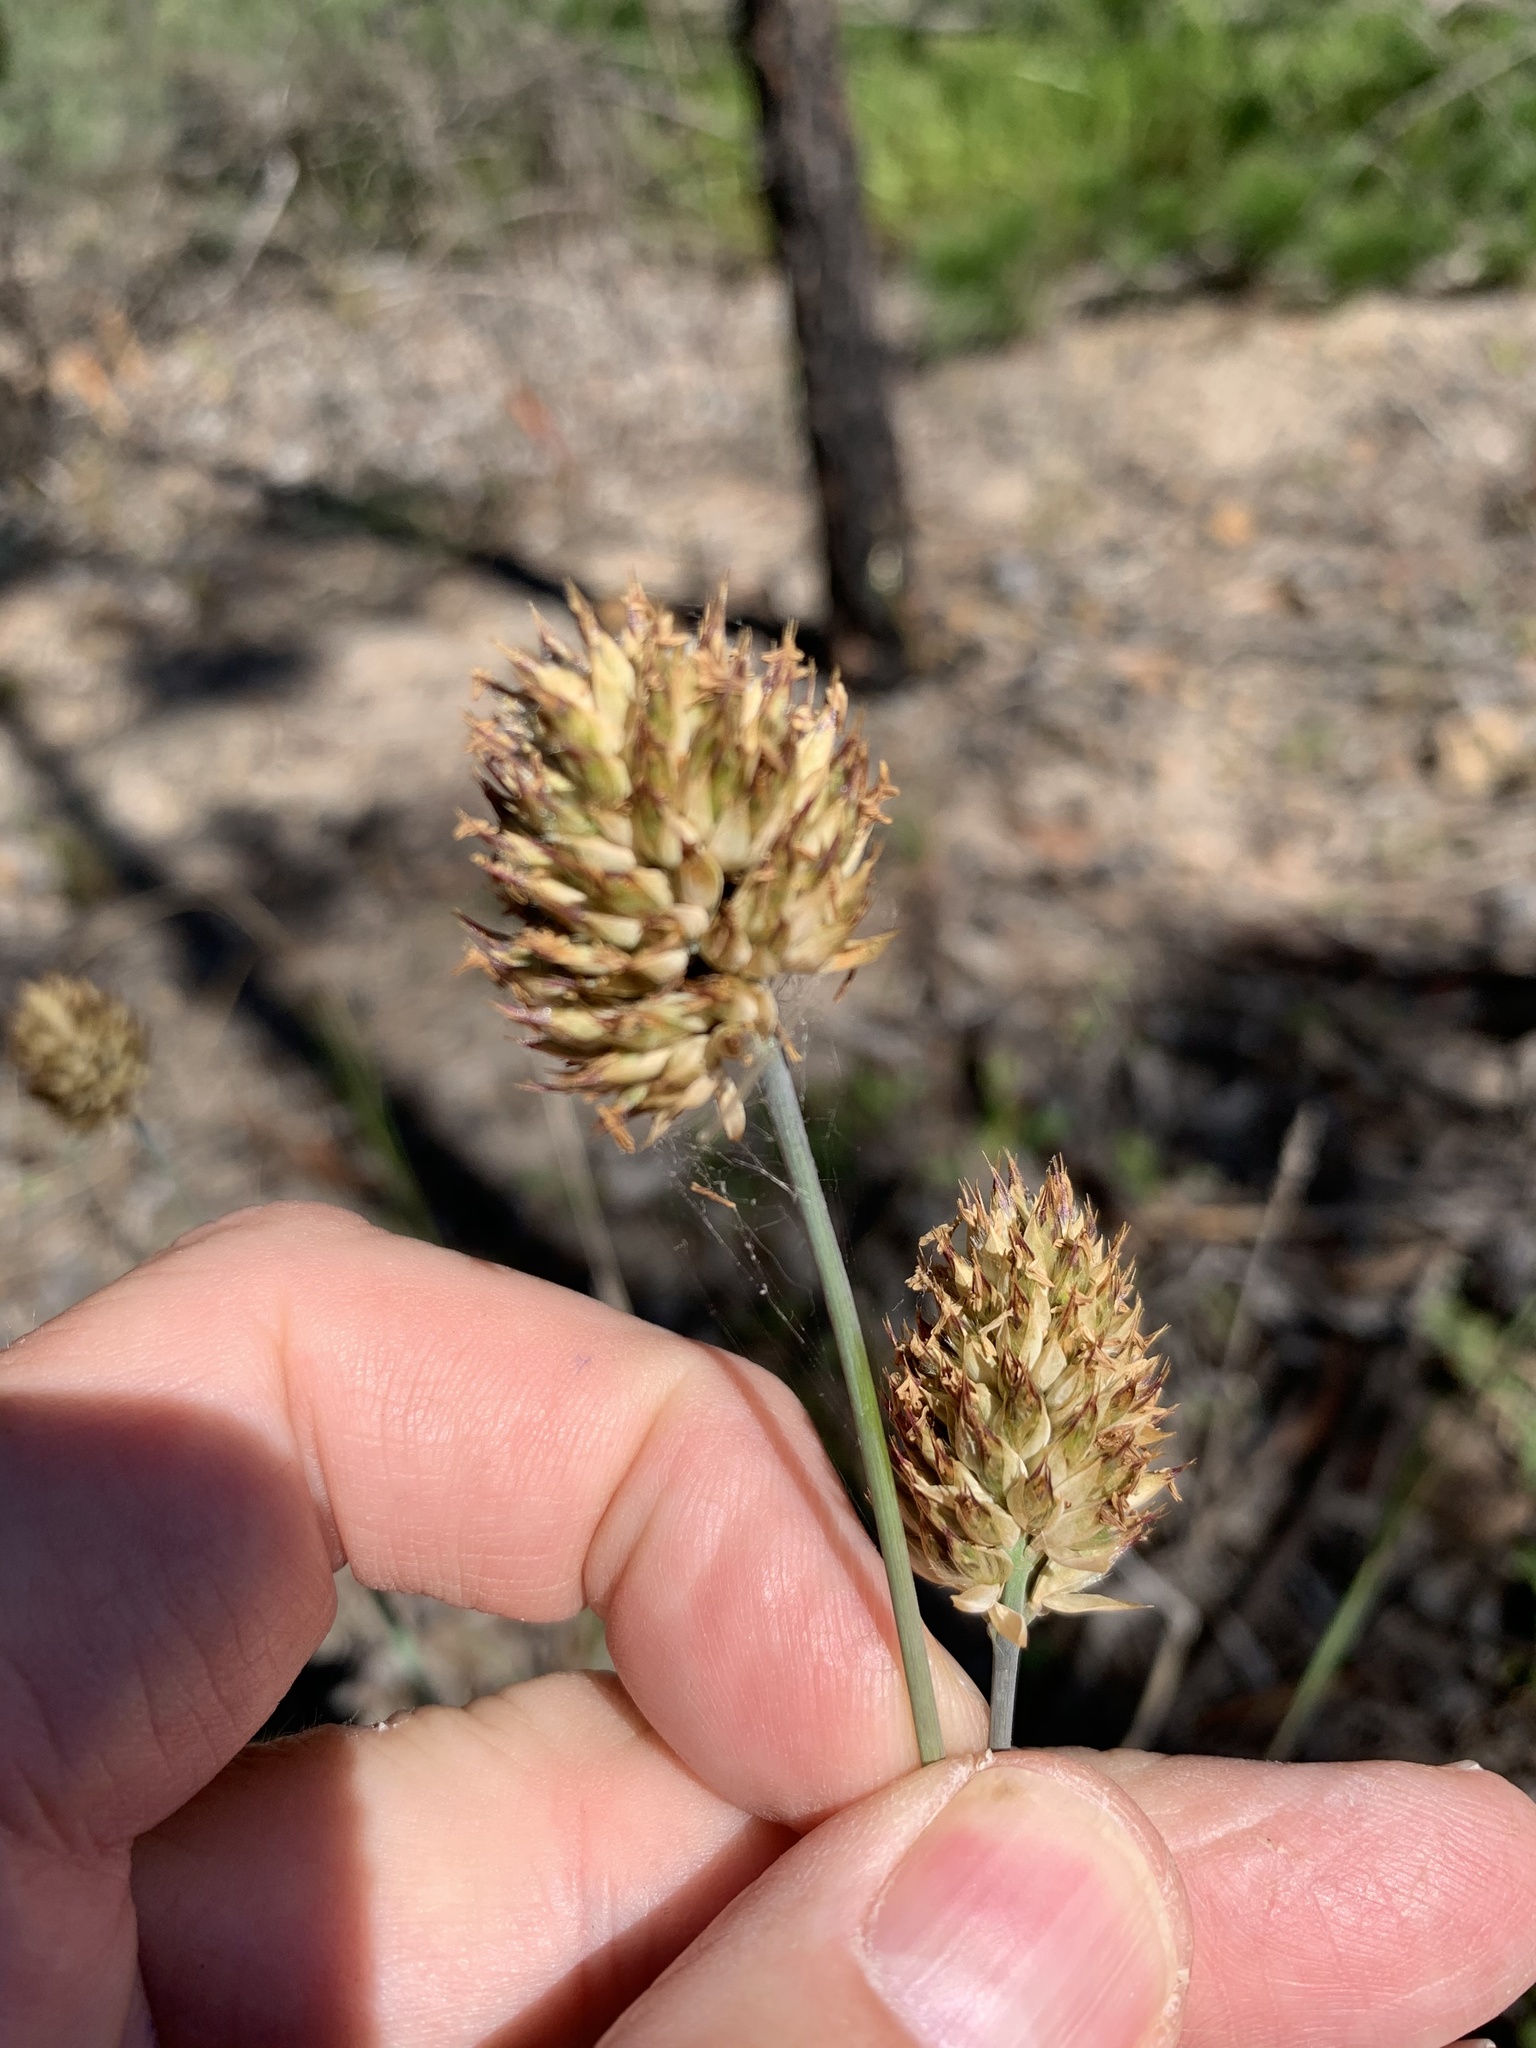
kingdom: Plantae
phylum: Tracheophyta
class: Liliopsida
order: Poales
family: Poaceae
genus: Geochloa
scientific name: Geochloa rufa
